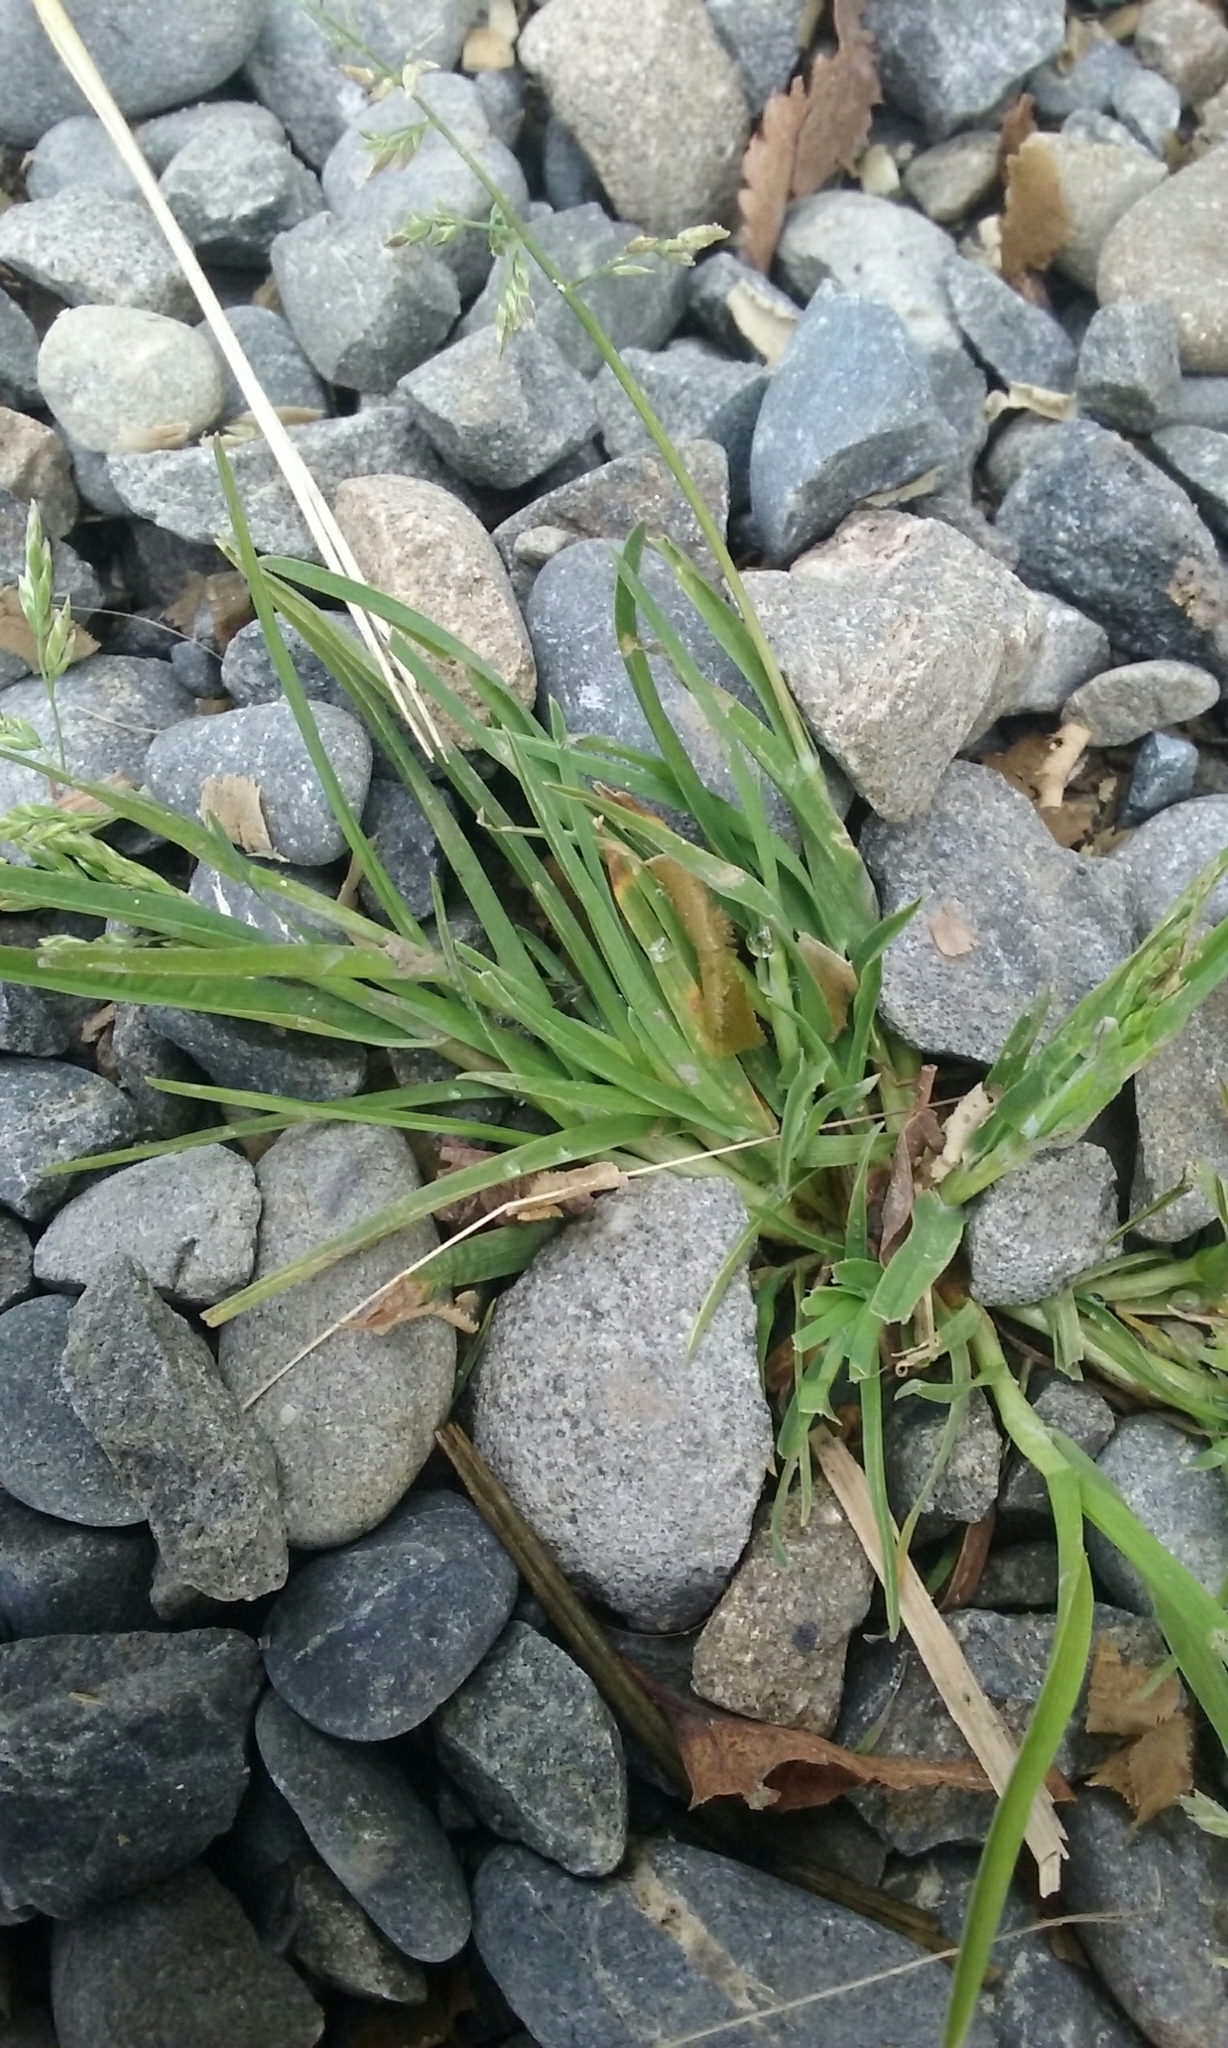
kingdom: Plantae
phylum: Tracheophyta
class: Liliopsida
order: Poales
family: Poaceae
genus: Poa
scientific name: Poa annua
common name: Annual bluegrass
